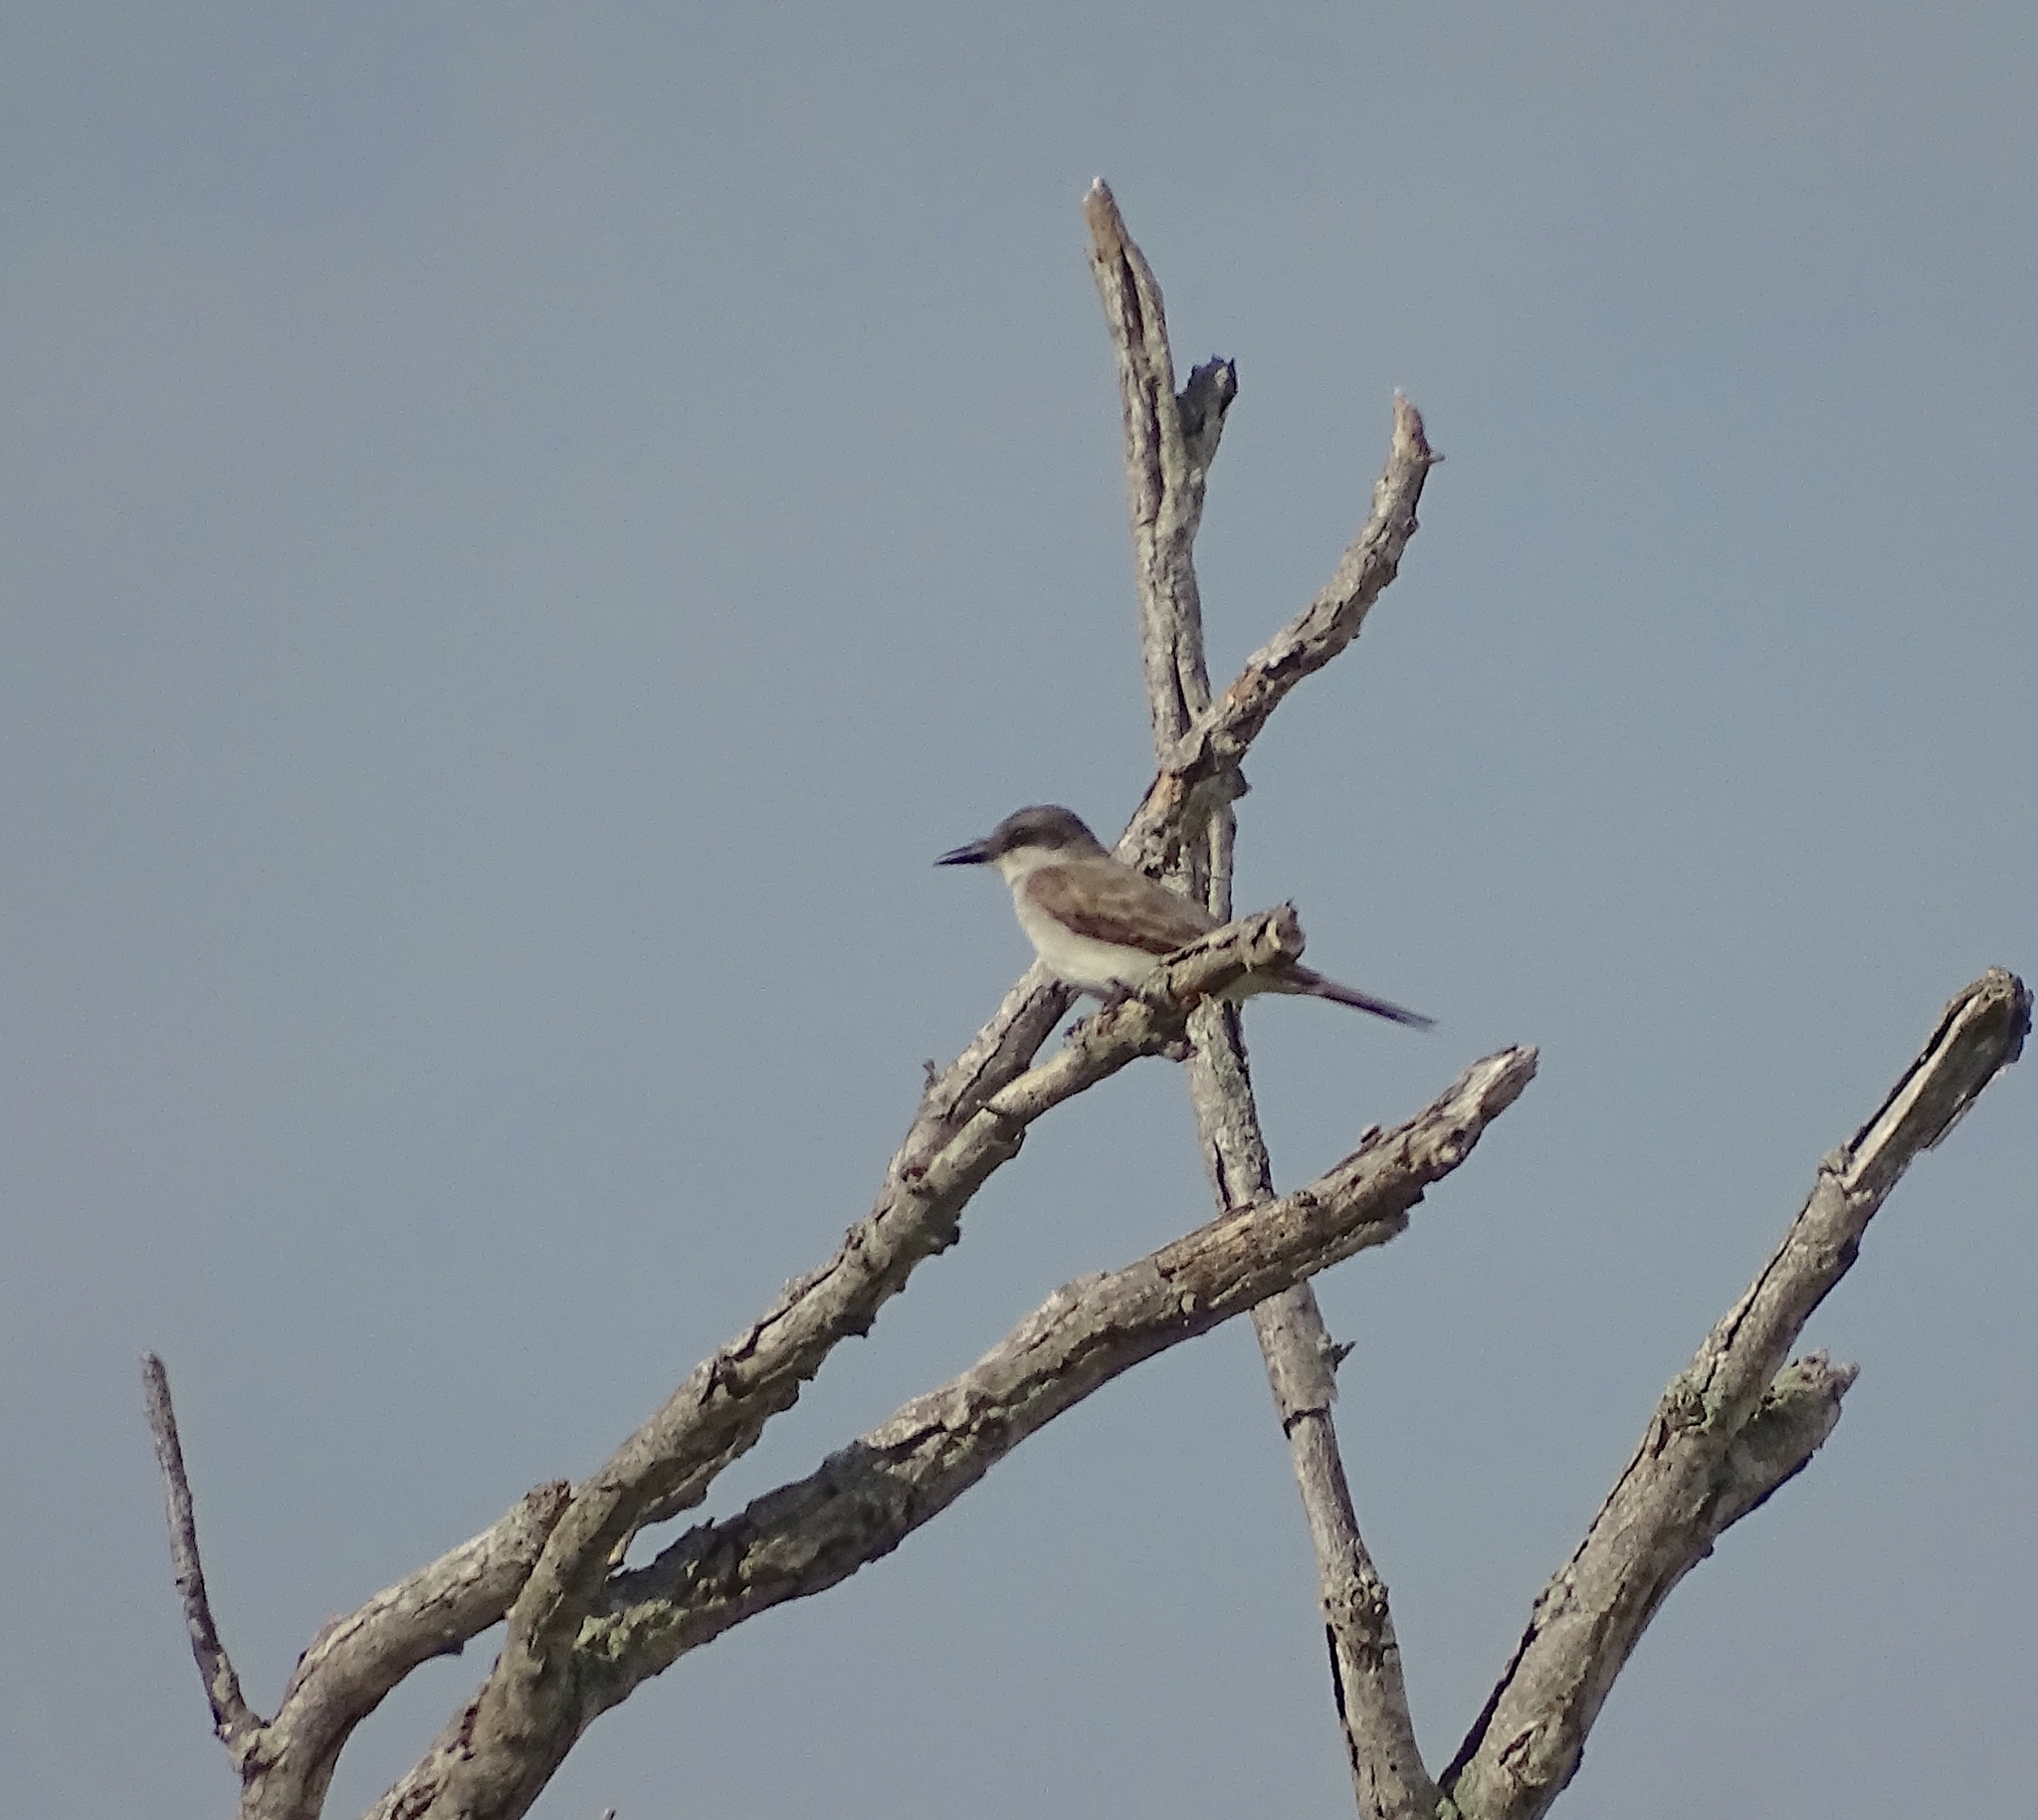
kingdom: Animalia
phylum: Chordata
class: Aves
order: Passeriformes
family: Tyrannidae
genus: Tyrannus
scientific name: Tyrannus dominicensis
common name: Gray kingbird
